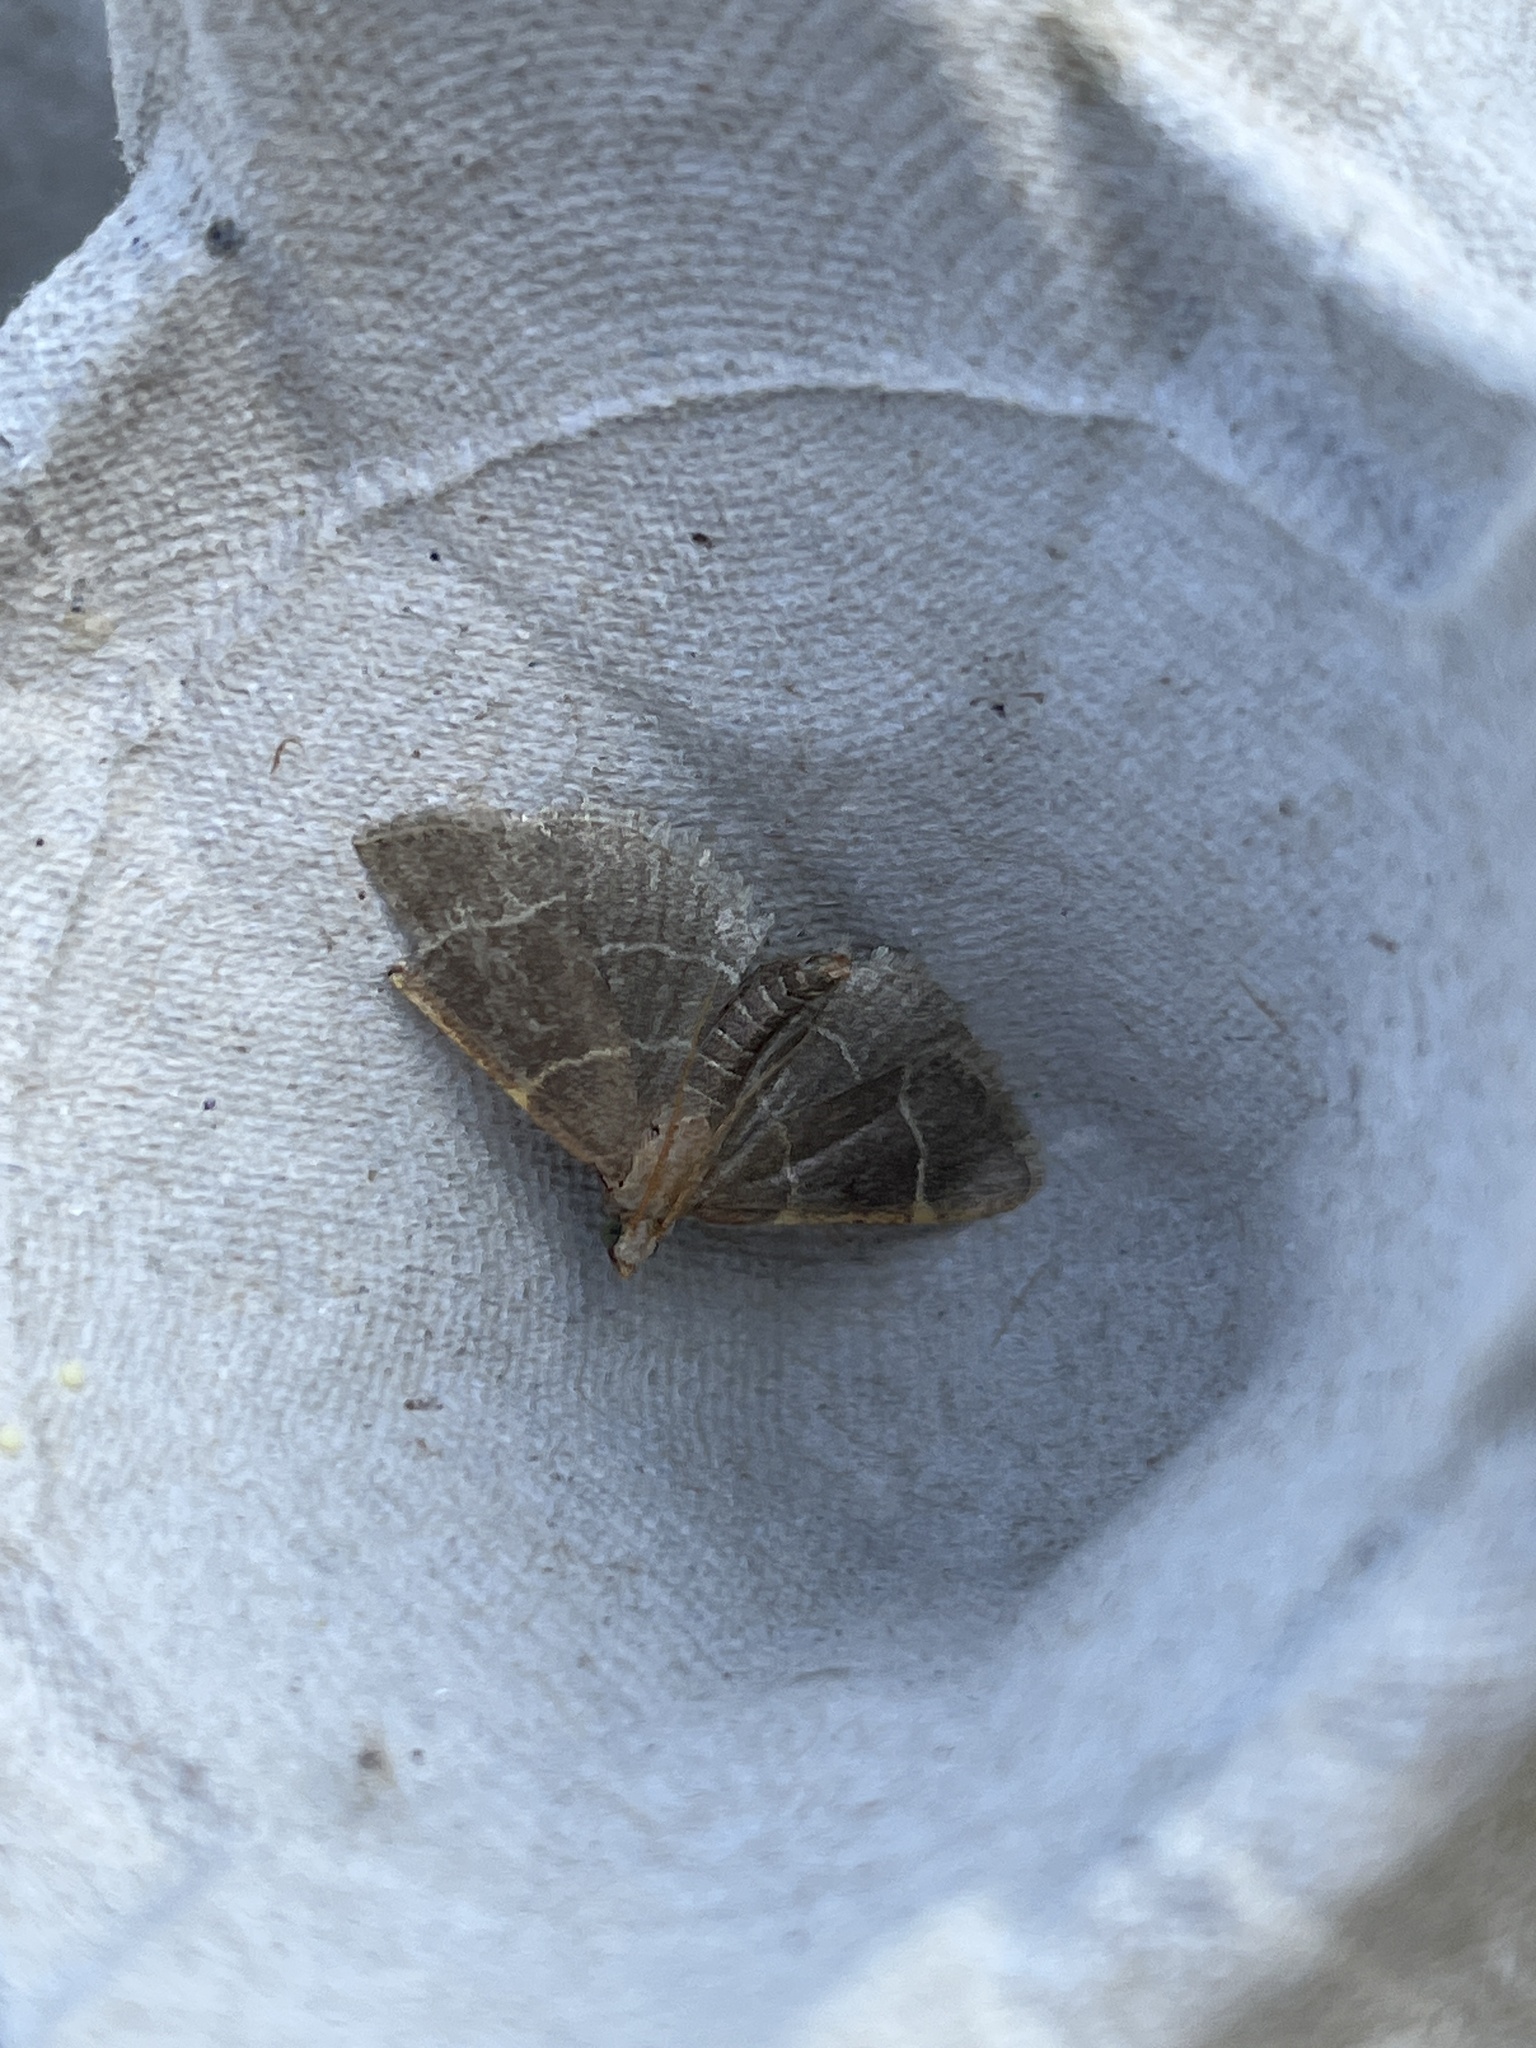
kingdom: Animalia
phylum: Arthropoda
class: Insecta
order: Lepidoptera
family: Pyralidae
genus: Hypsopygia
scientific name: Hypsopygia glaucinalis
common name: Double-striped tabby
